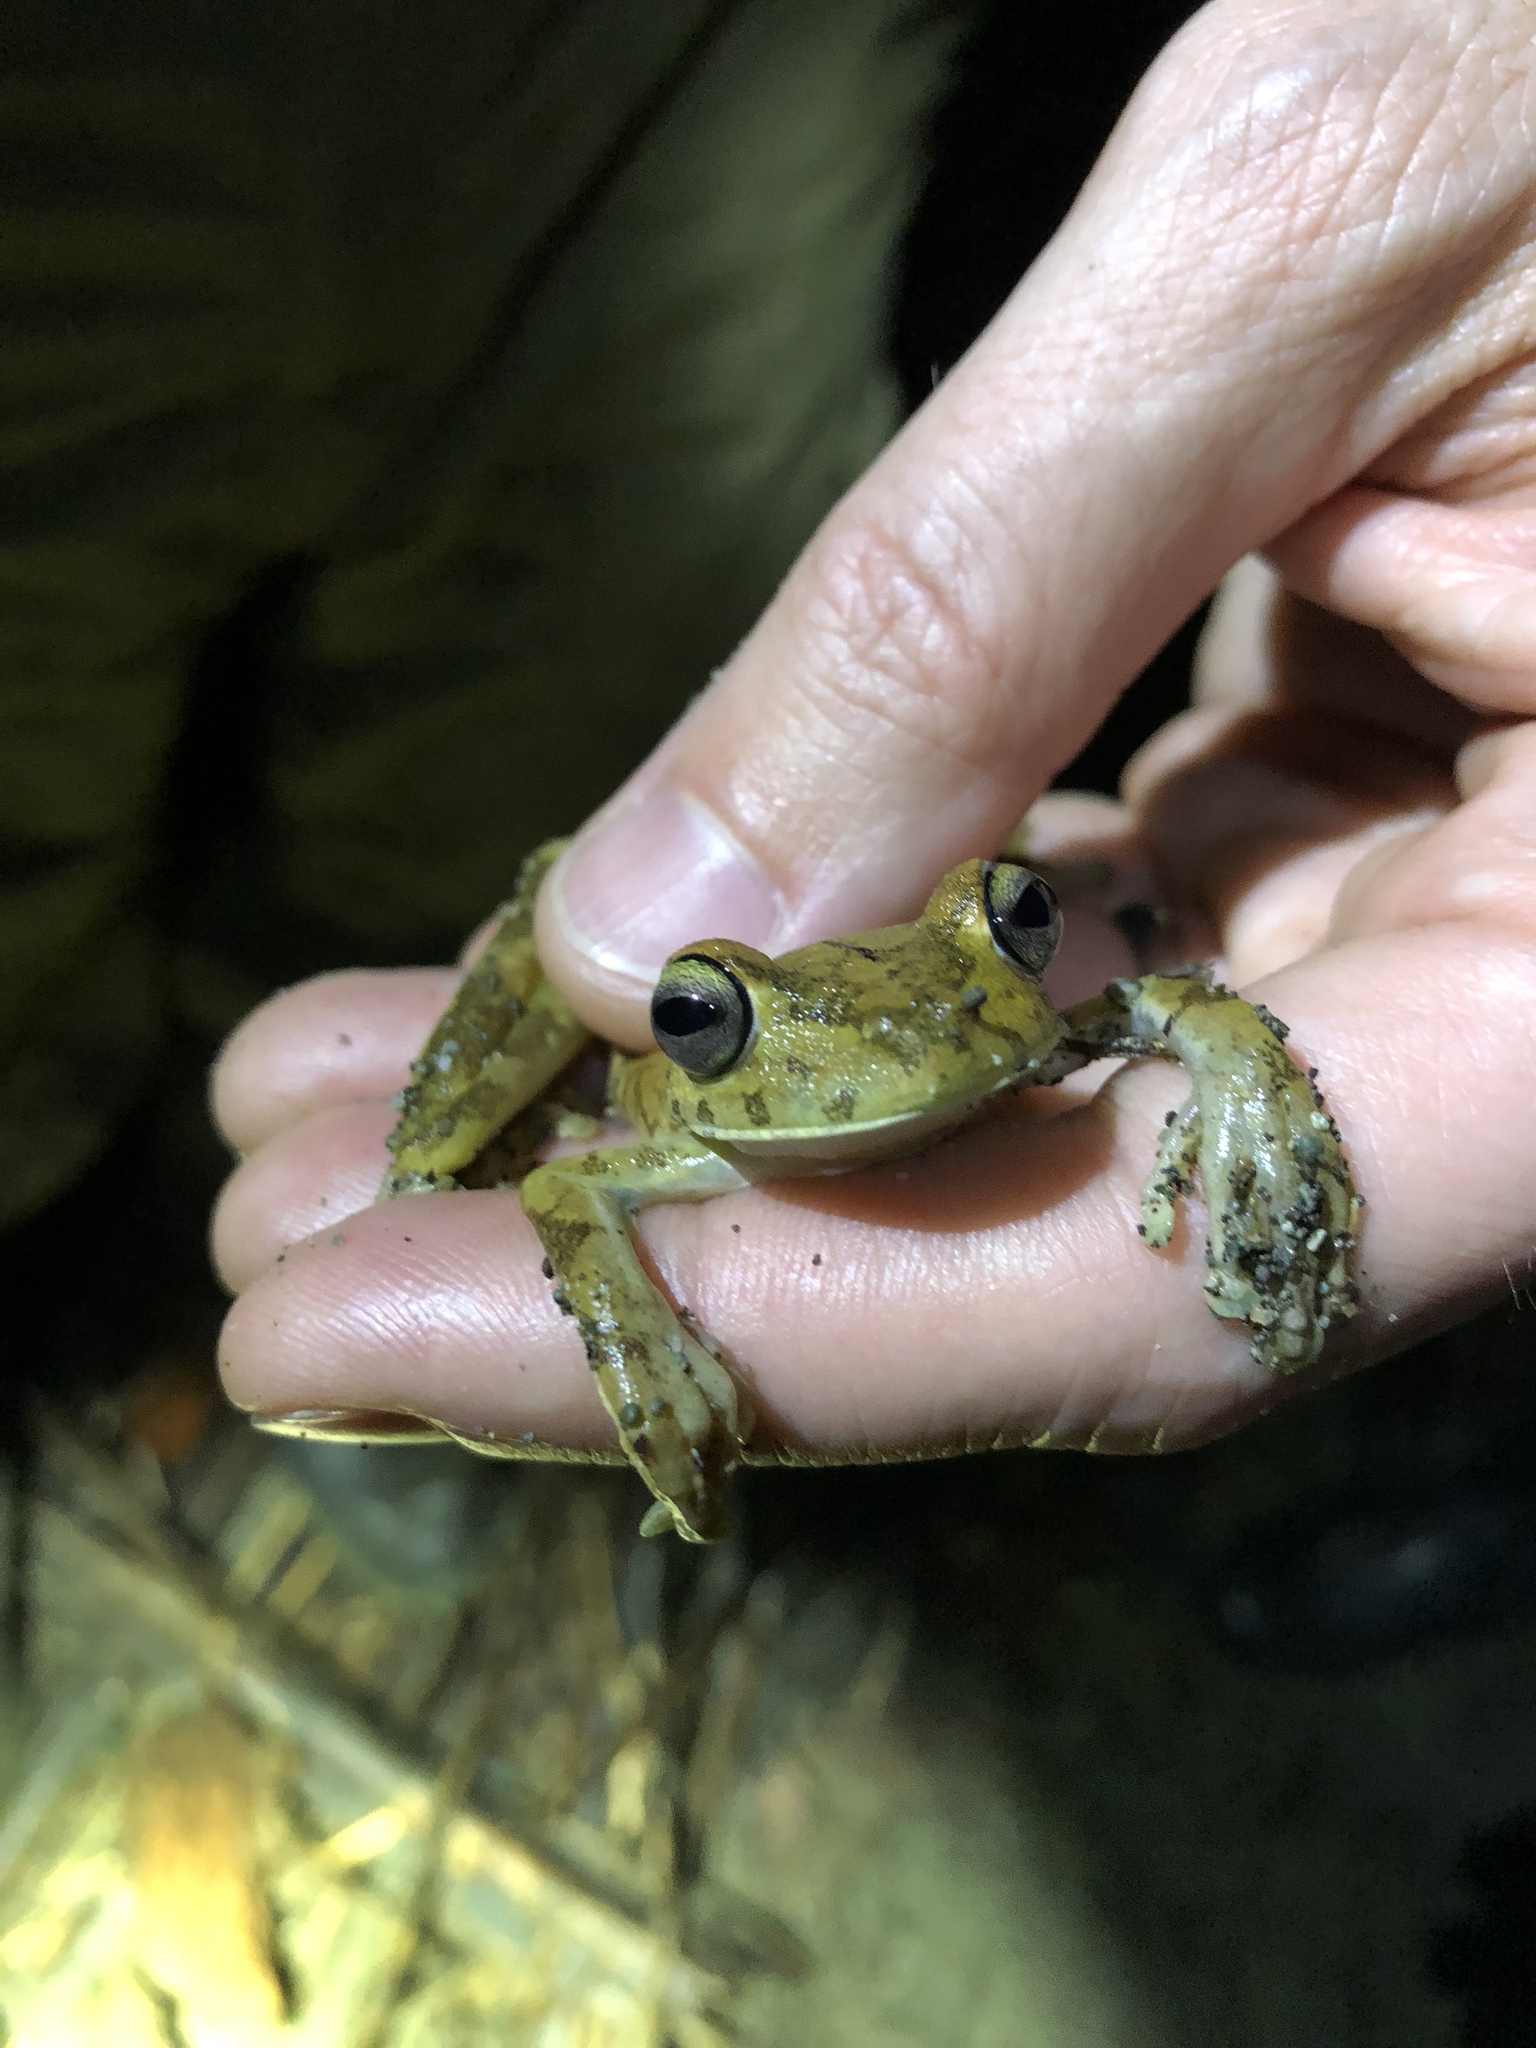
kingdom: Animalia
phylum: Chordata
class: Amphibia
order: Anura
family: Hylidae
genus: Boana
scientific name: Boana rosenbergi
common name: Rosenberg´s gladiator treefrog
